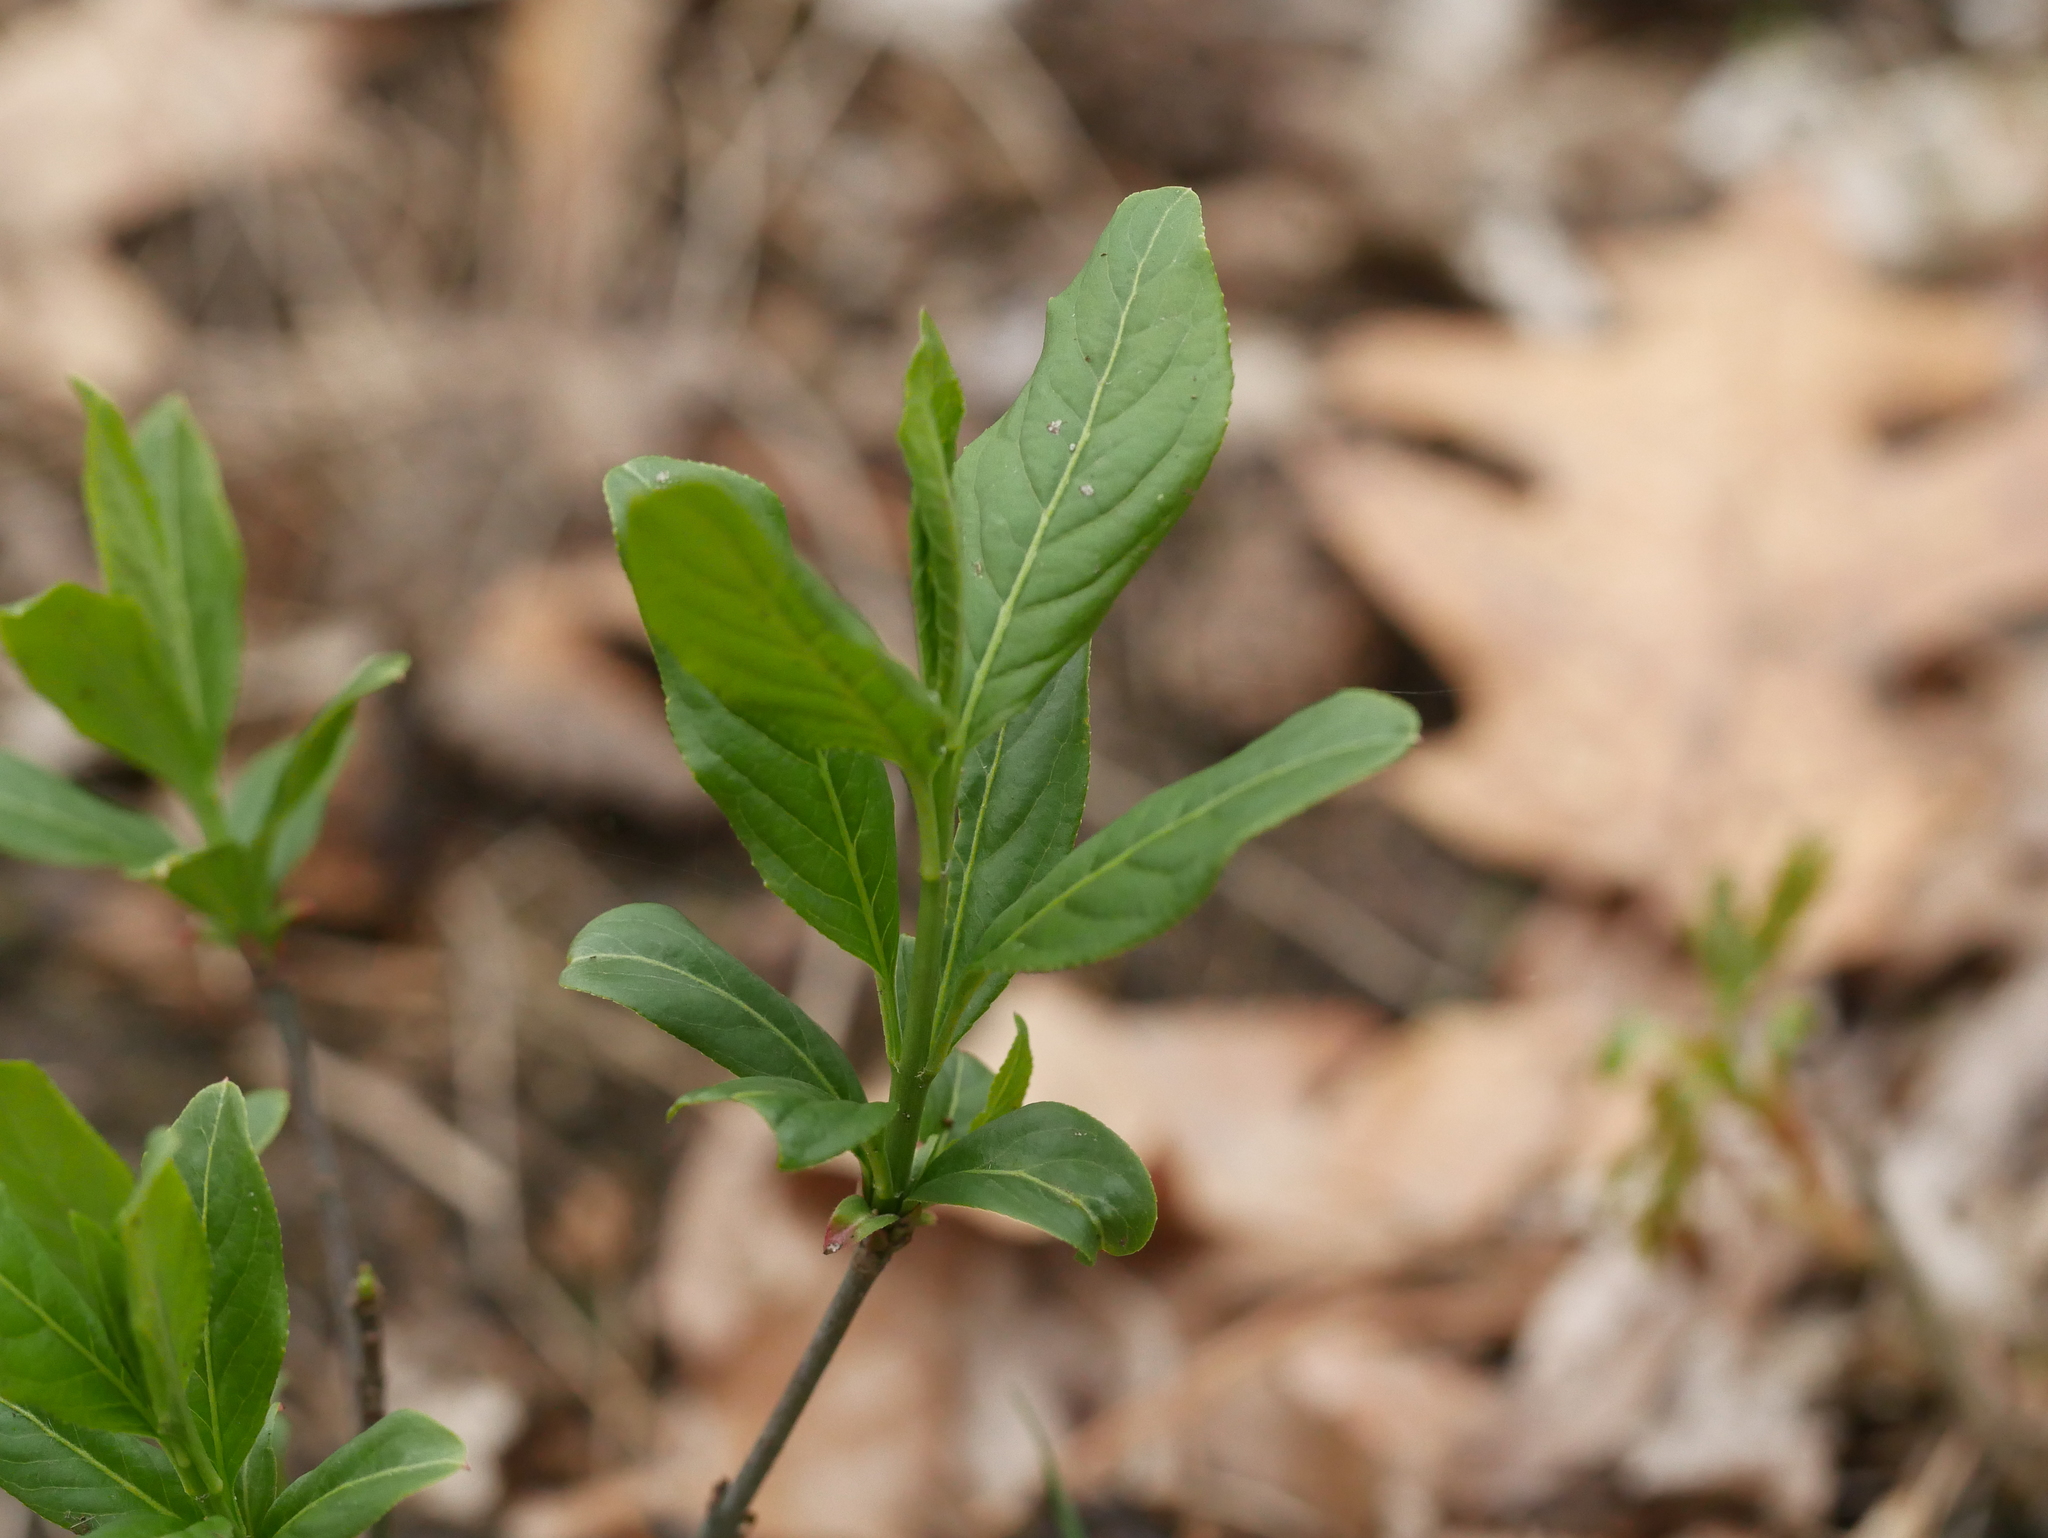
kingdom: Plantae
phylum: Tracheophyta
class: Magnoliopsida
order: Celastrales
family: Celastraceae
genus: Euonymus
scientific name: Euonymus europaeus
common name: Spindle
